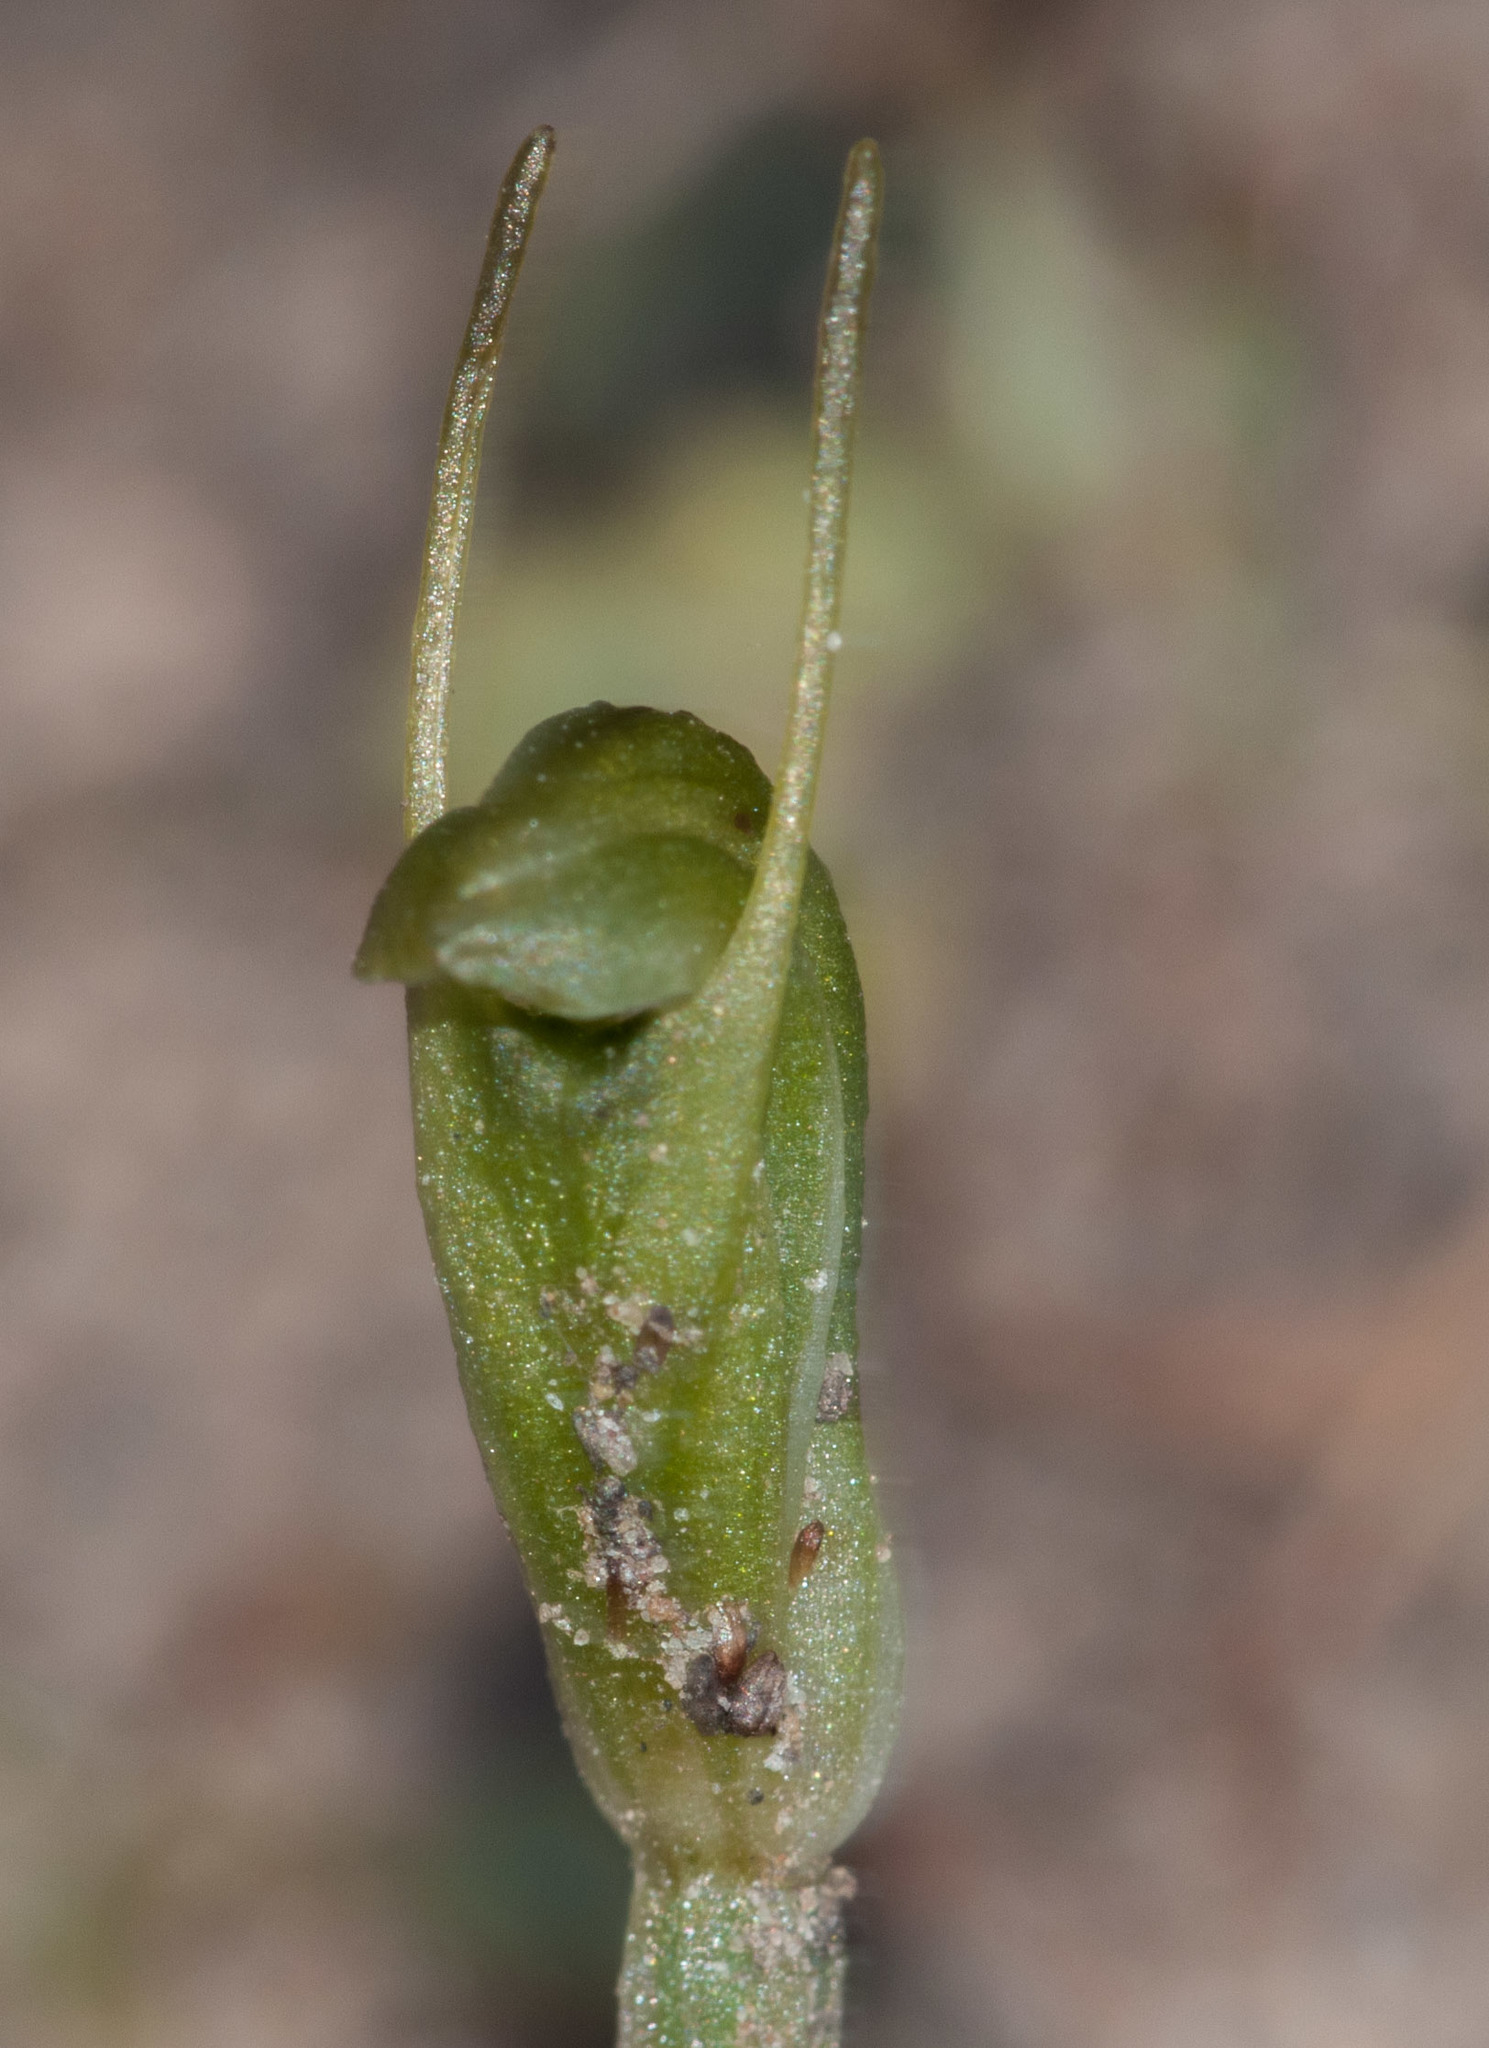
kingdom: Plantae
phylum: Tracheophyta
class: Liliopsida
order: Asparagales
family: Orchidaceae
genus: Pterostylis
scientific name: Pterostylis nana
